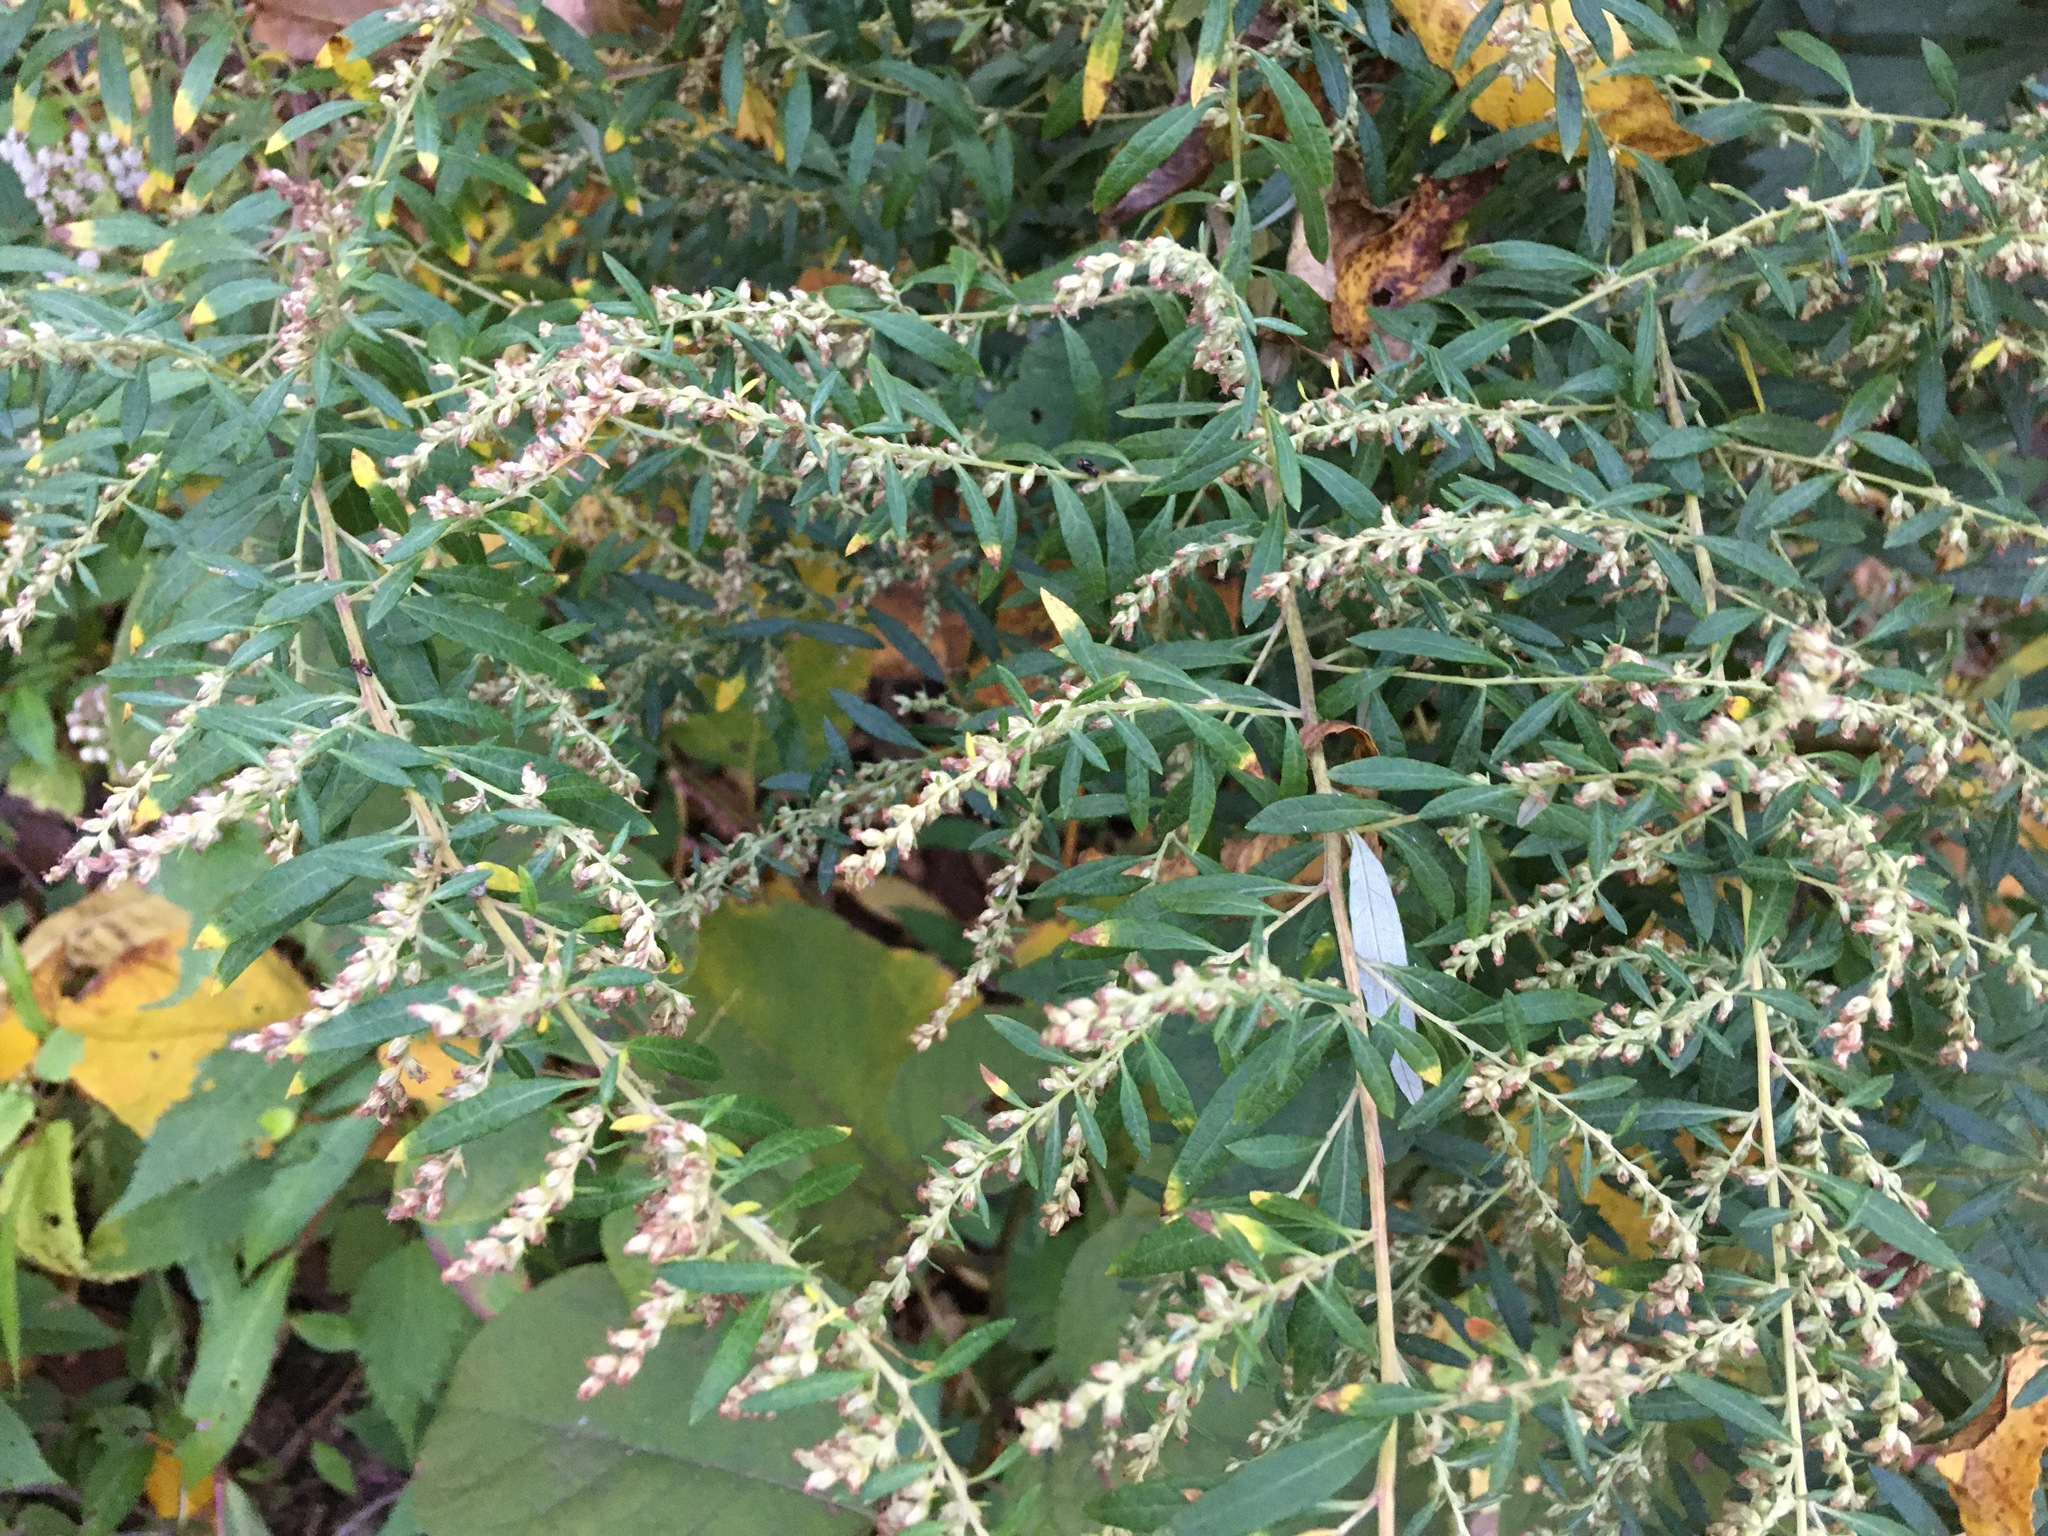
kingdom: Plantae
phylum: Tracheophyta
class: Magnoliopsida
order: Asterales
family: Asteraceae
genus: Artemisia
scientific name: Artemisia vulgaris
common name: Mugwort
